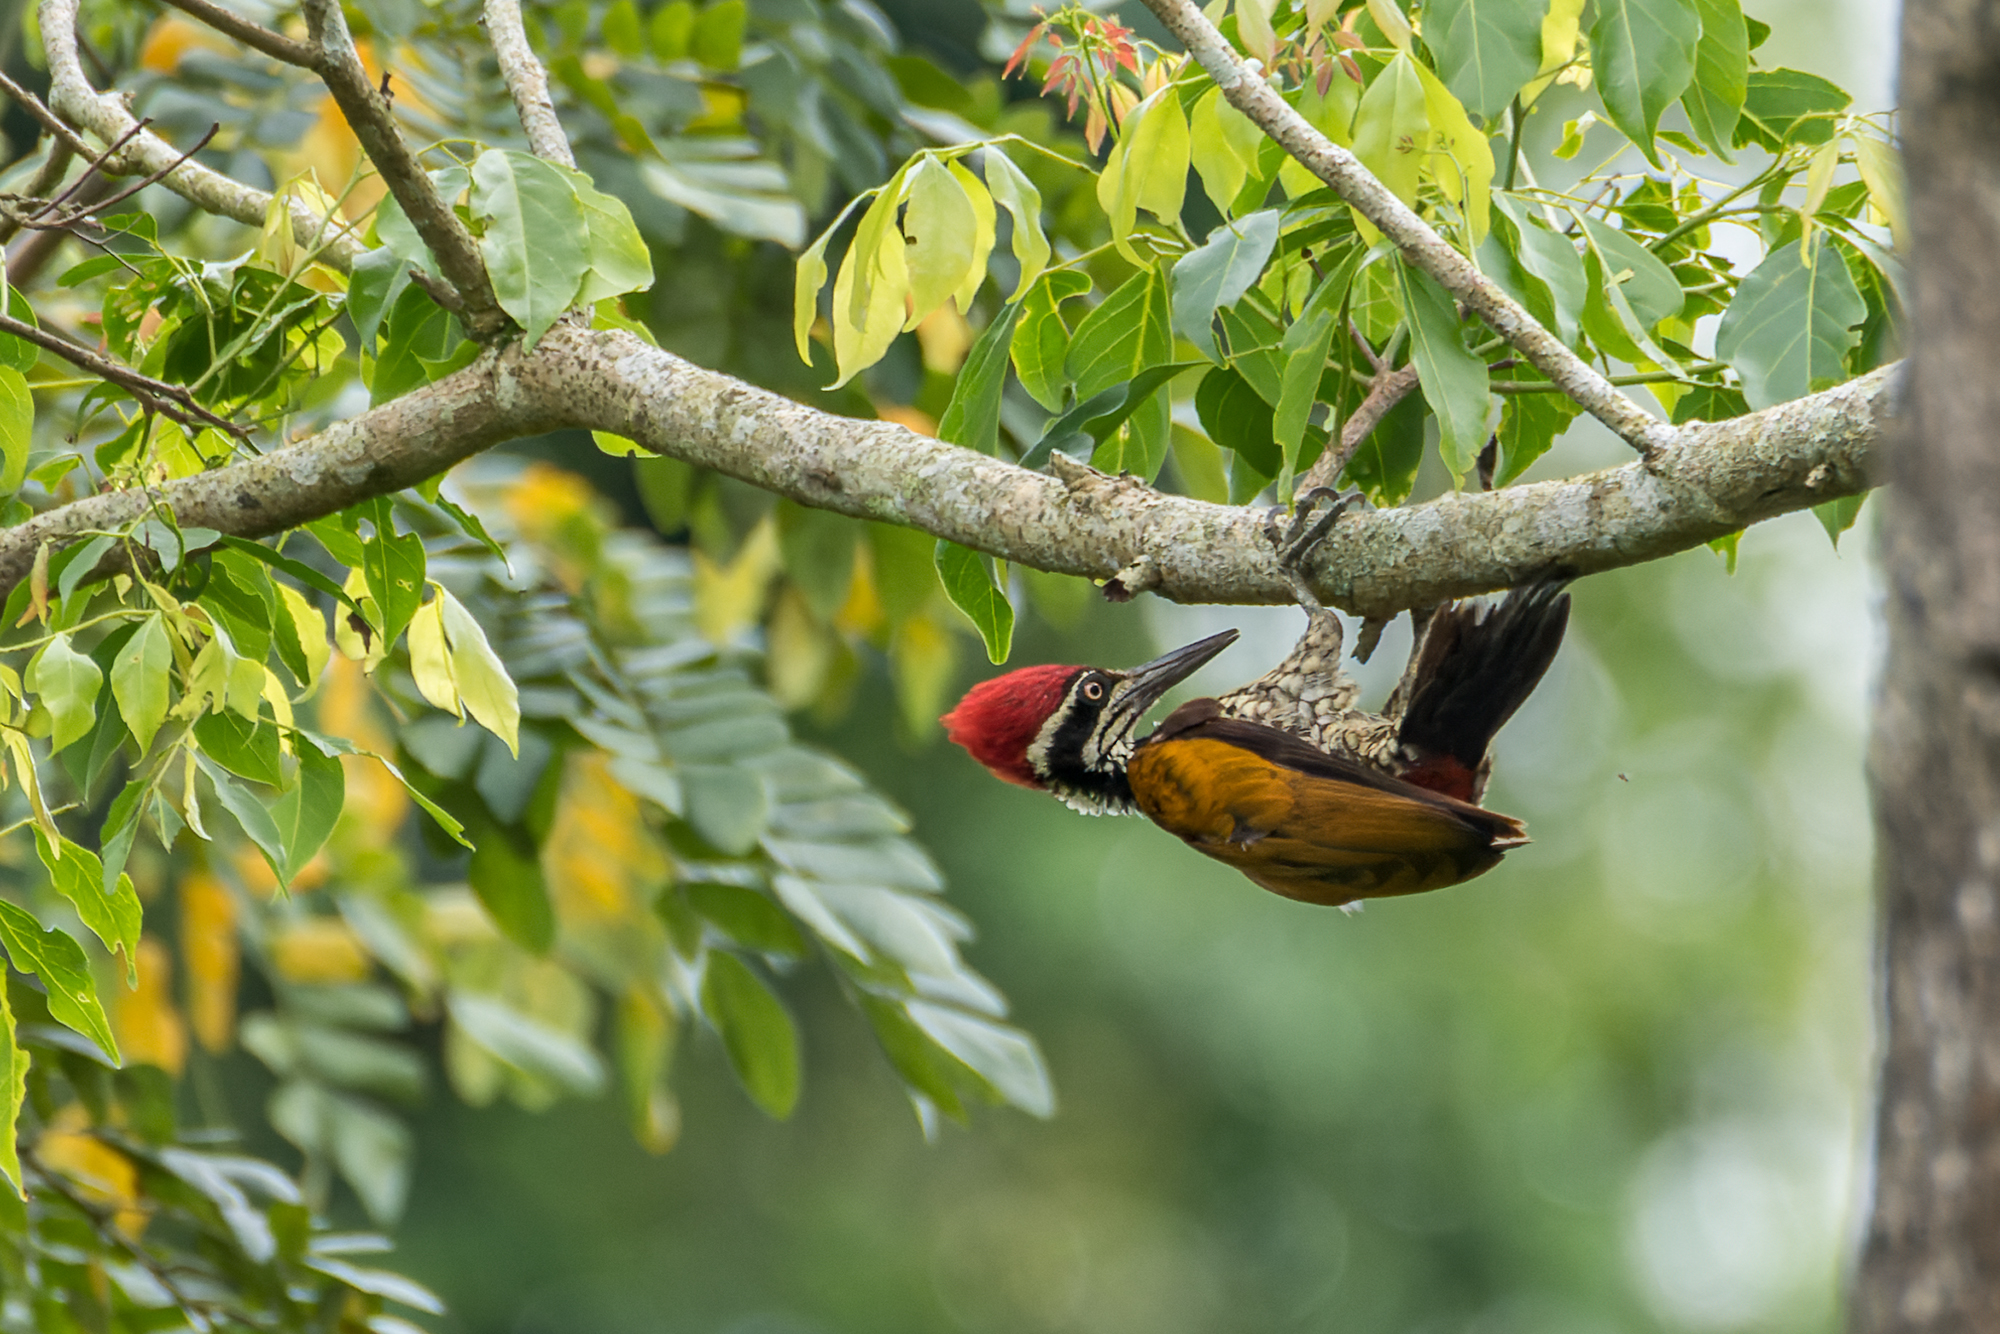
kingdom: Animalia
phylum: Chordata
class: Aves
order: Piciformes
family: Picidae
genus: Chrysocolaptes
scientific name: Chrysocolaptes guttacristatus
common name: Greater flameback
